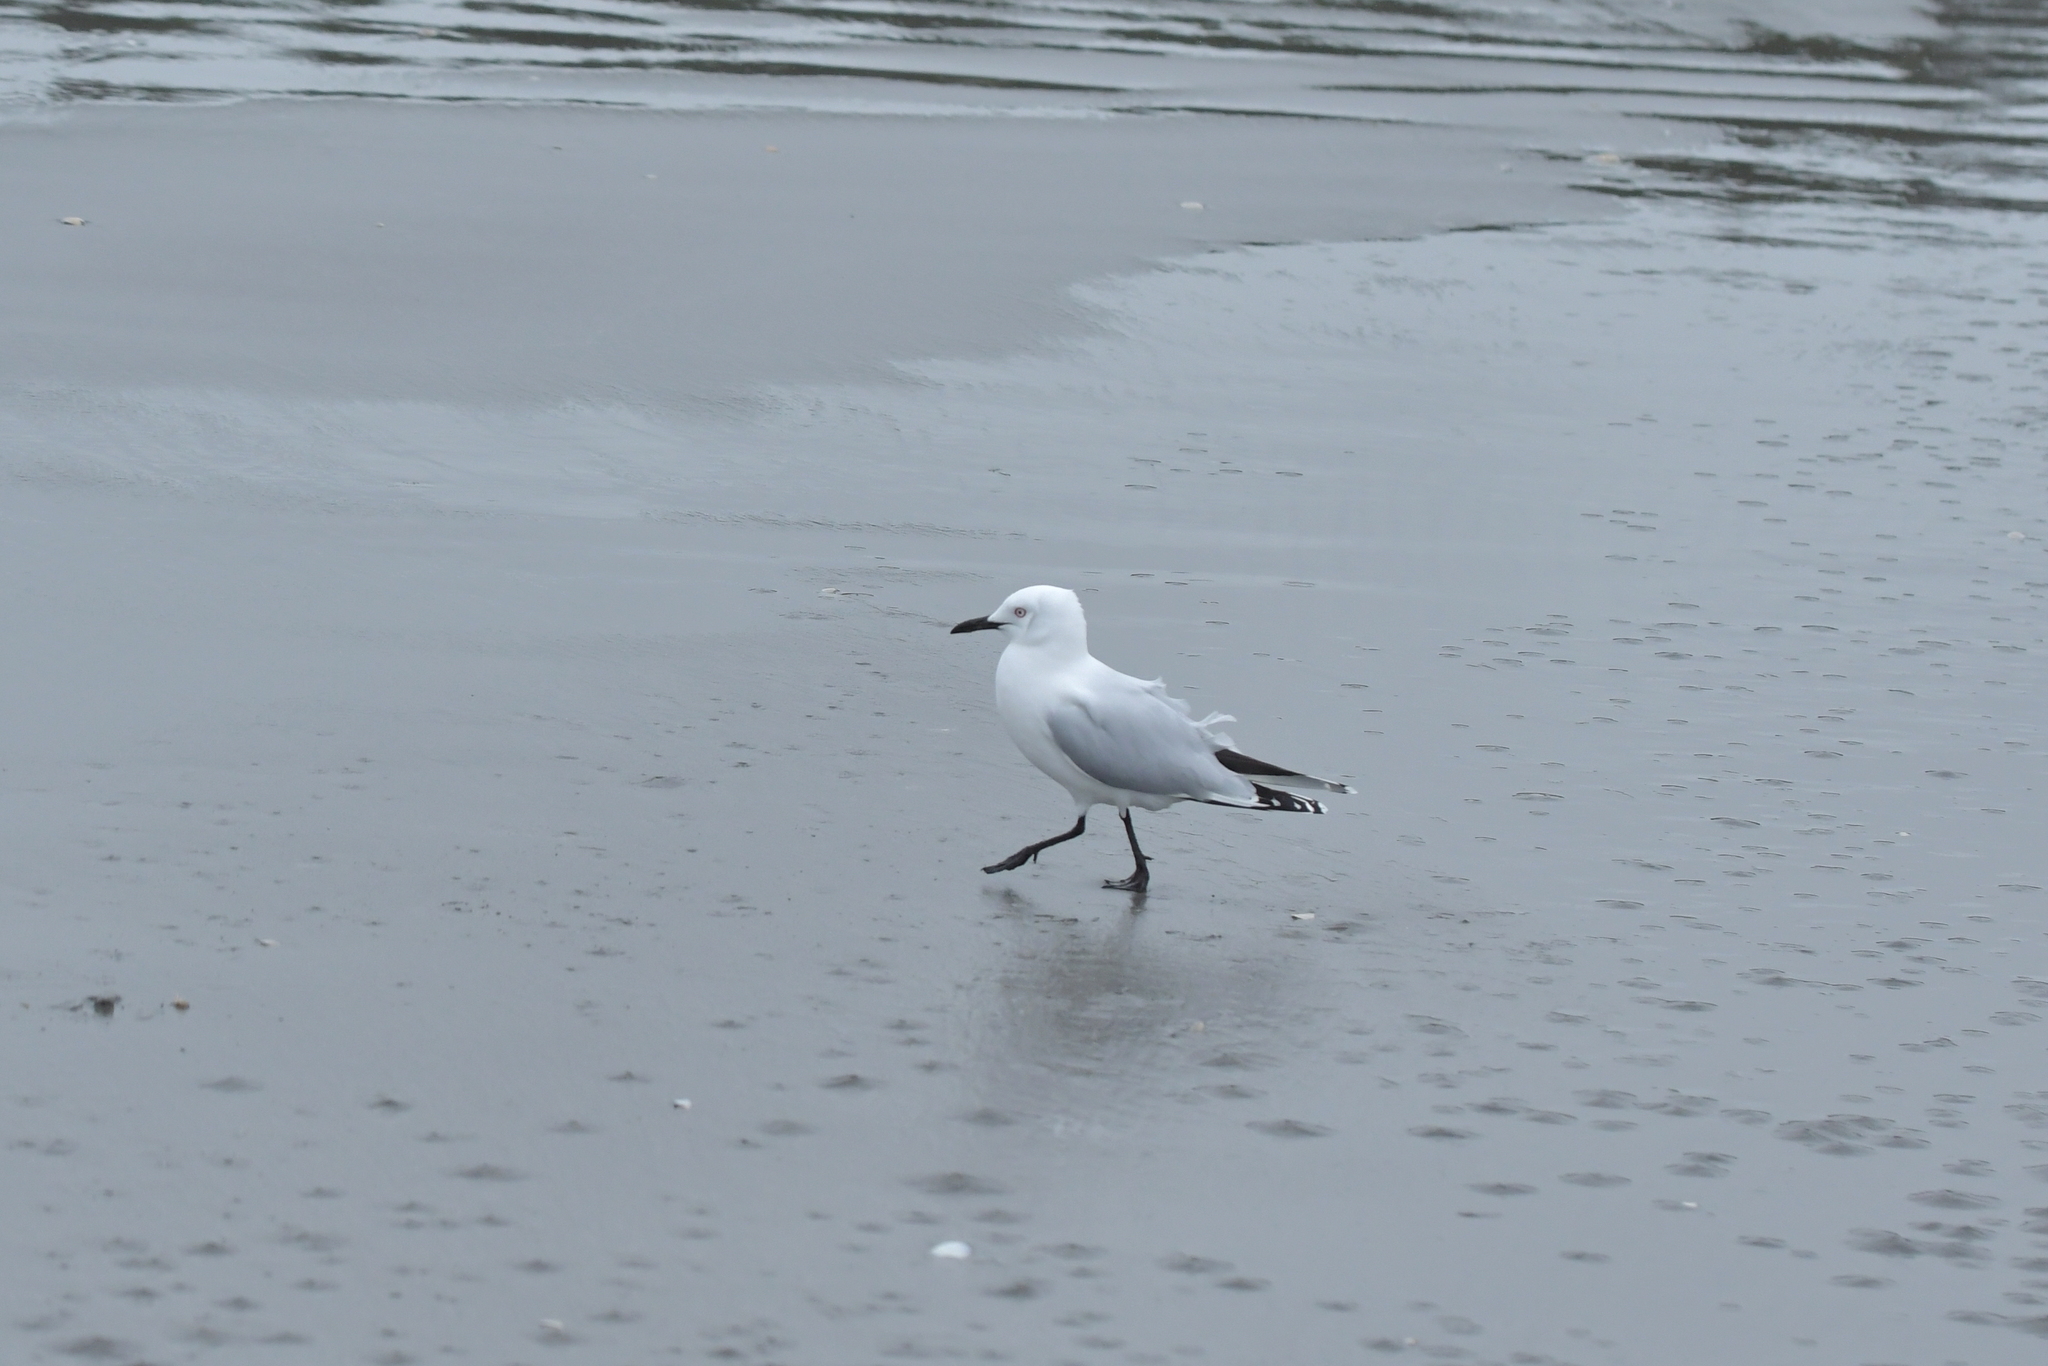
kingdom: Animalia
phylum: Chordata
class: Aves
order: Charadriiformes
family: Laridae
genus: Chroicocephalus
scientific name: Chroicocephalus bulleri
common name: Black-billed gull
